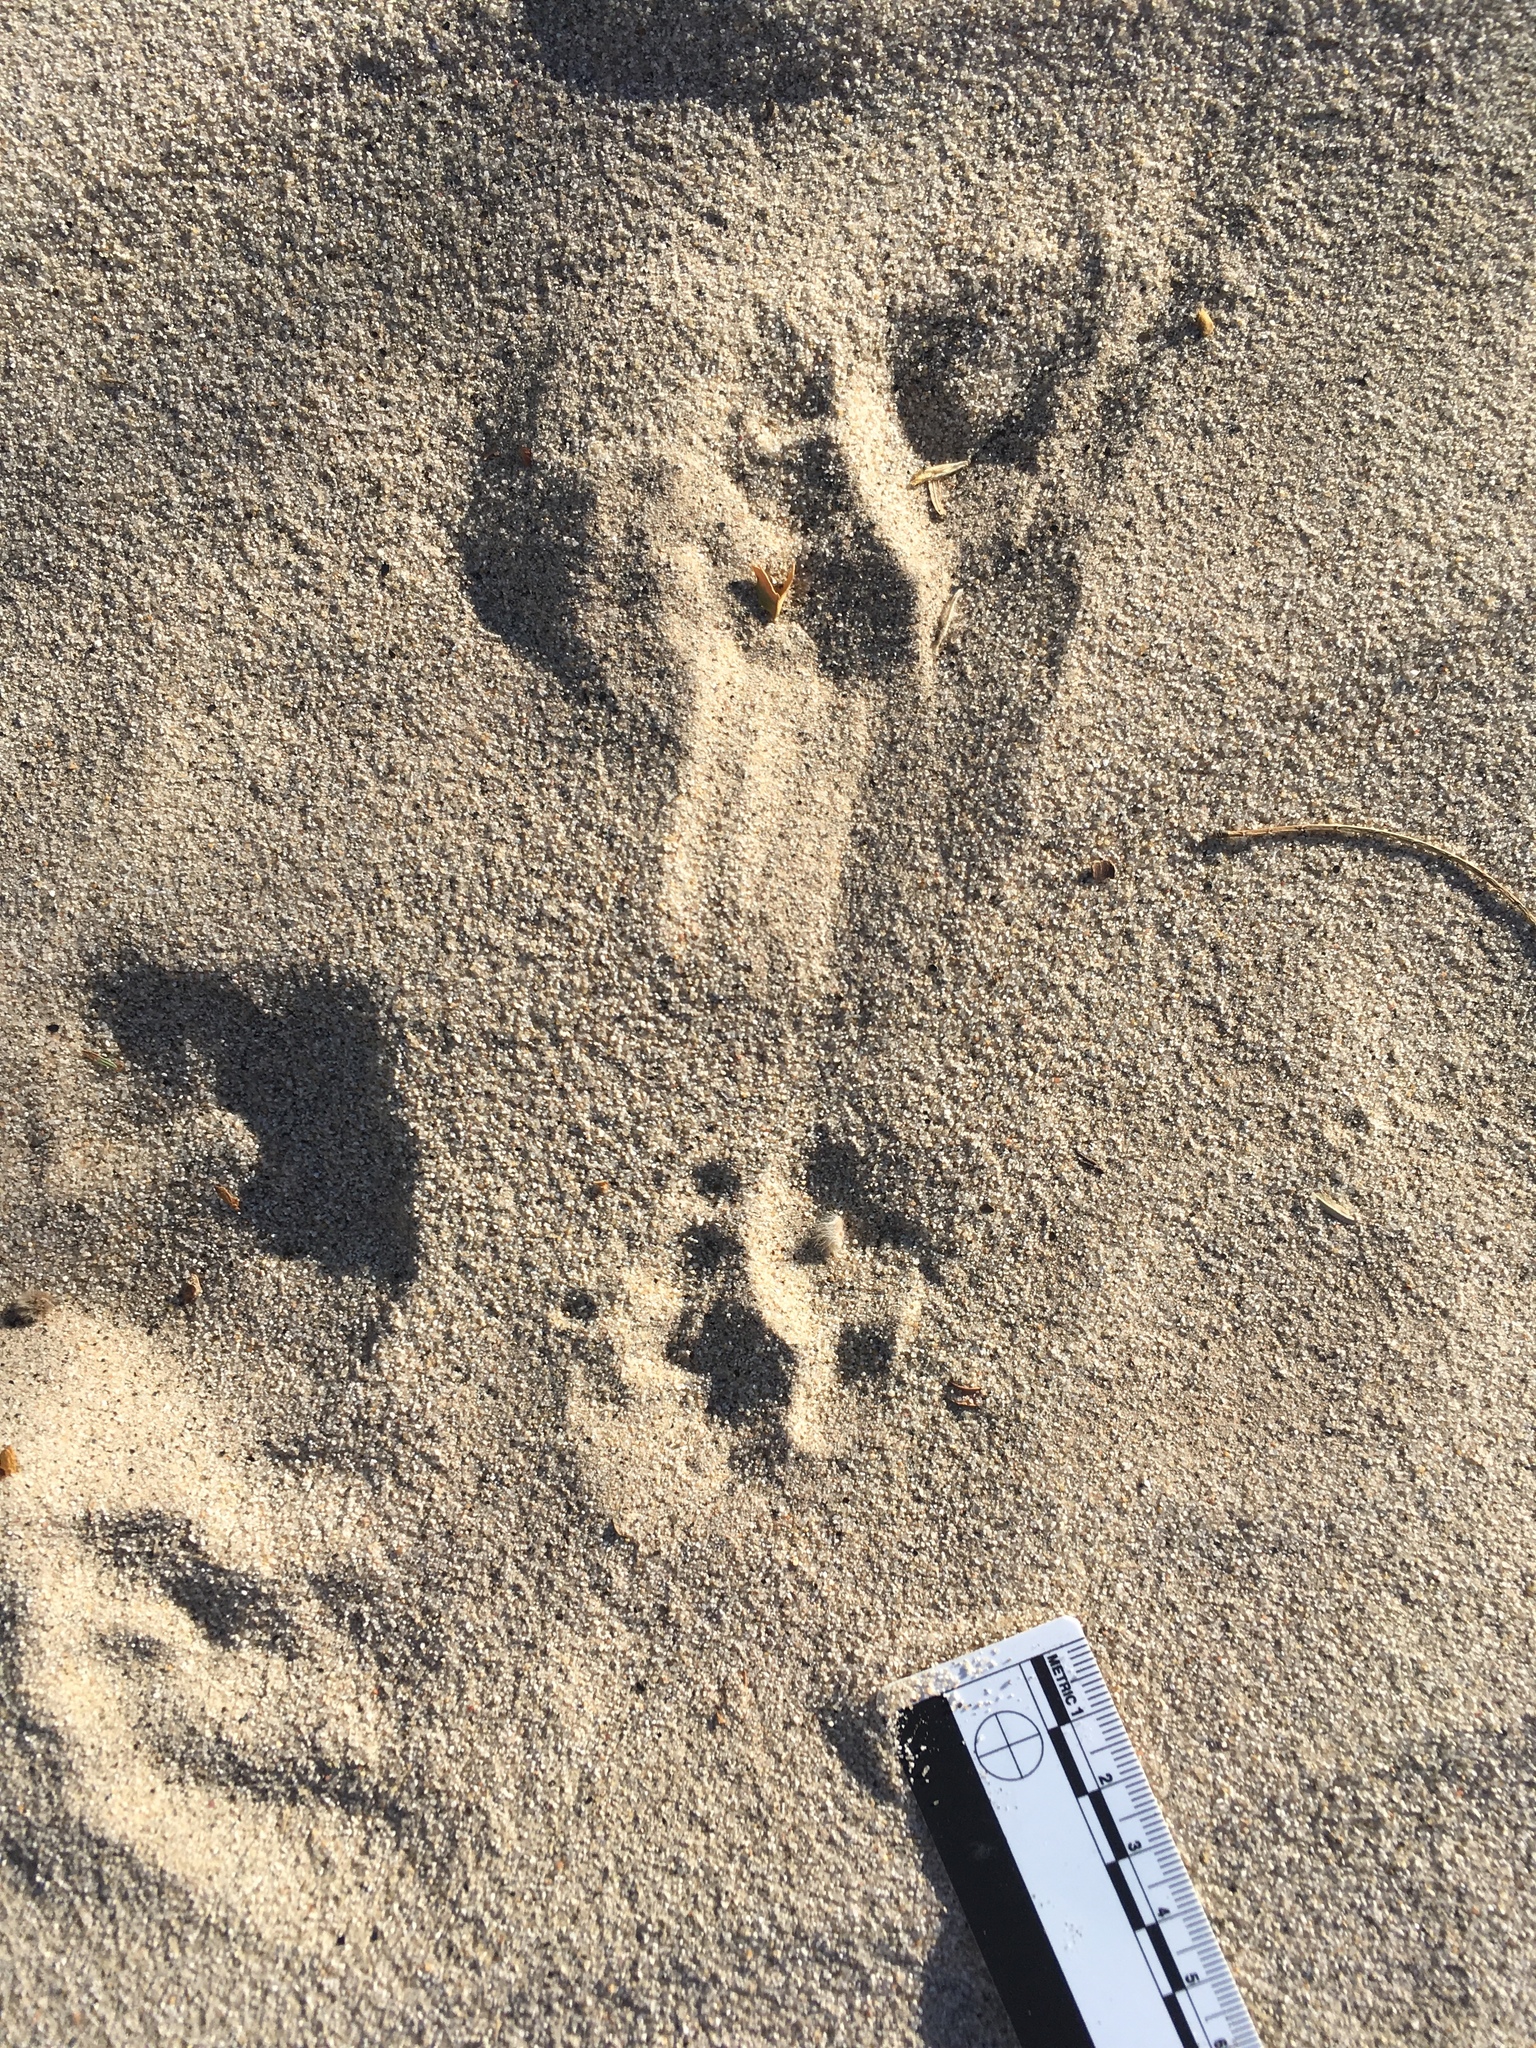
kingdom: Animalia
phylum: Chordata
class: Mammalia
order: Carnivora
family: Mustelidae
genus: Taxidea
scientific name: Taxidea taxus
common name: American badger
